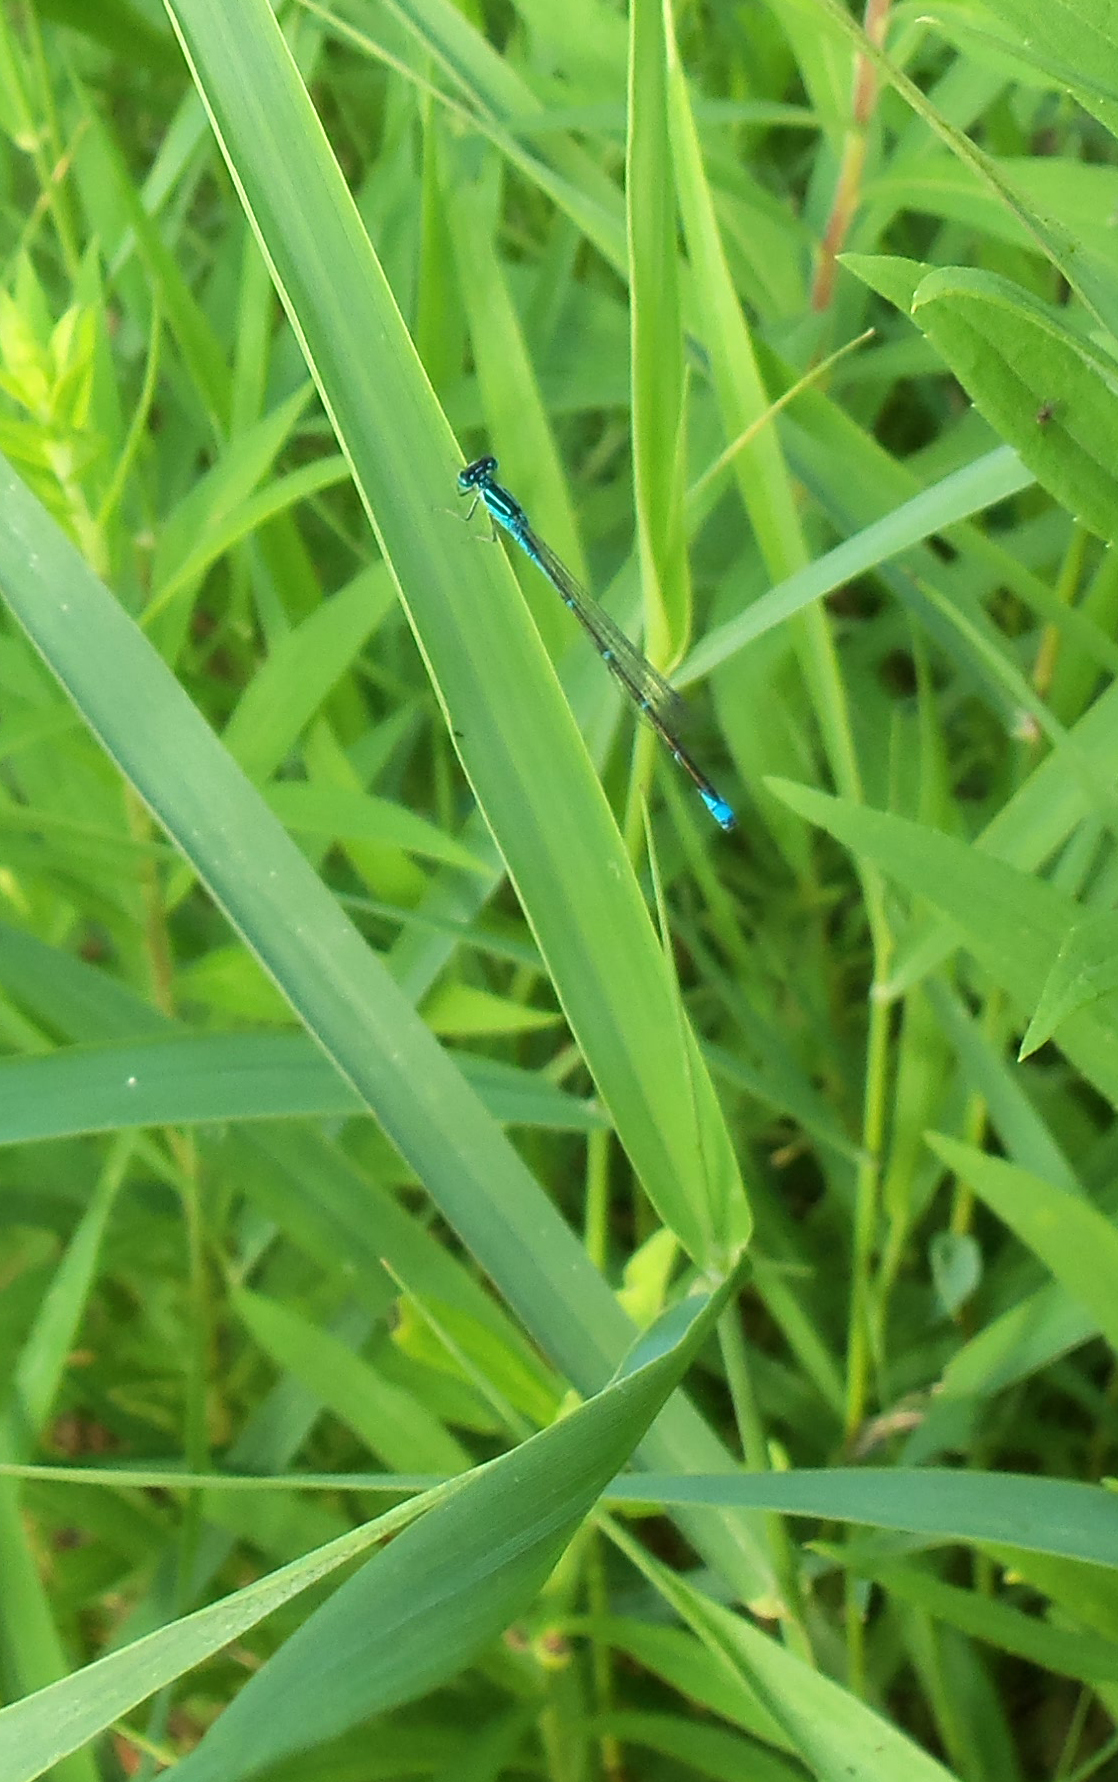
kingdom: Animalia
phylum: Arthropoda
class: Insecta
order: Odonata
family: Coenagrionidae
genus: Enallagma
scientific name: Enallagma exsulans
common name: Stream bluet
